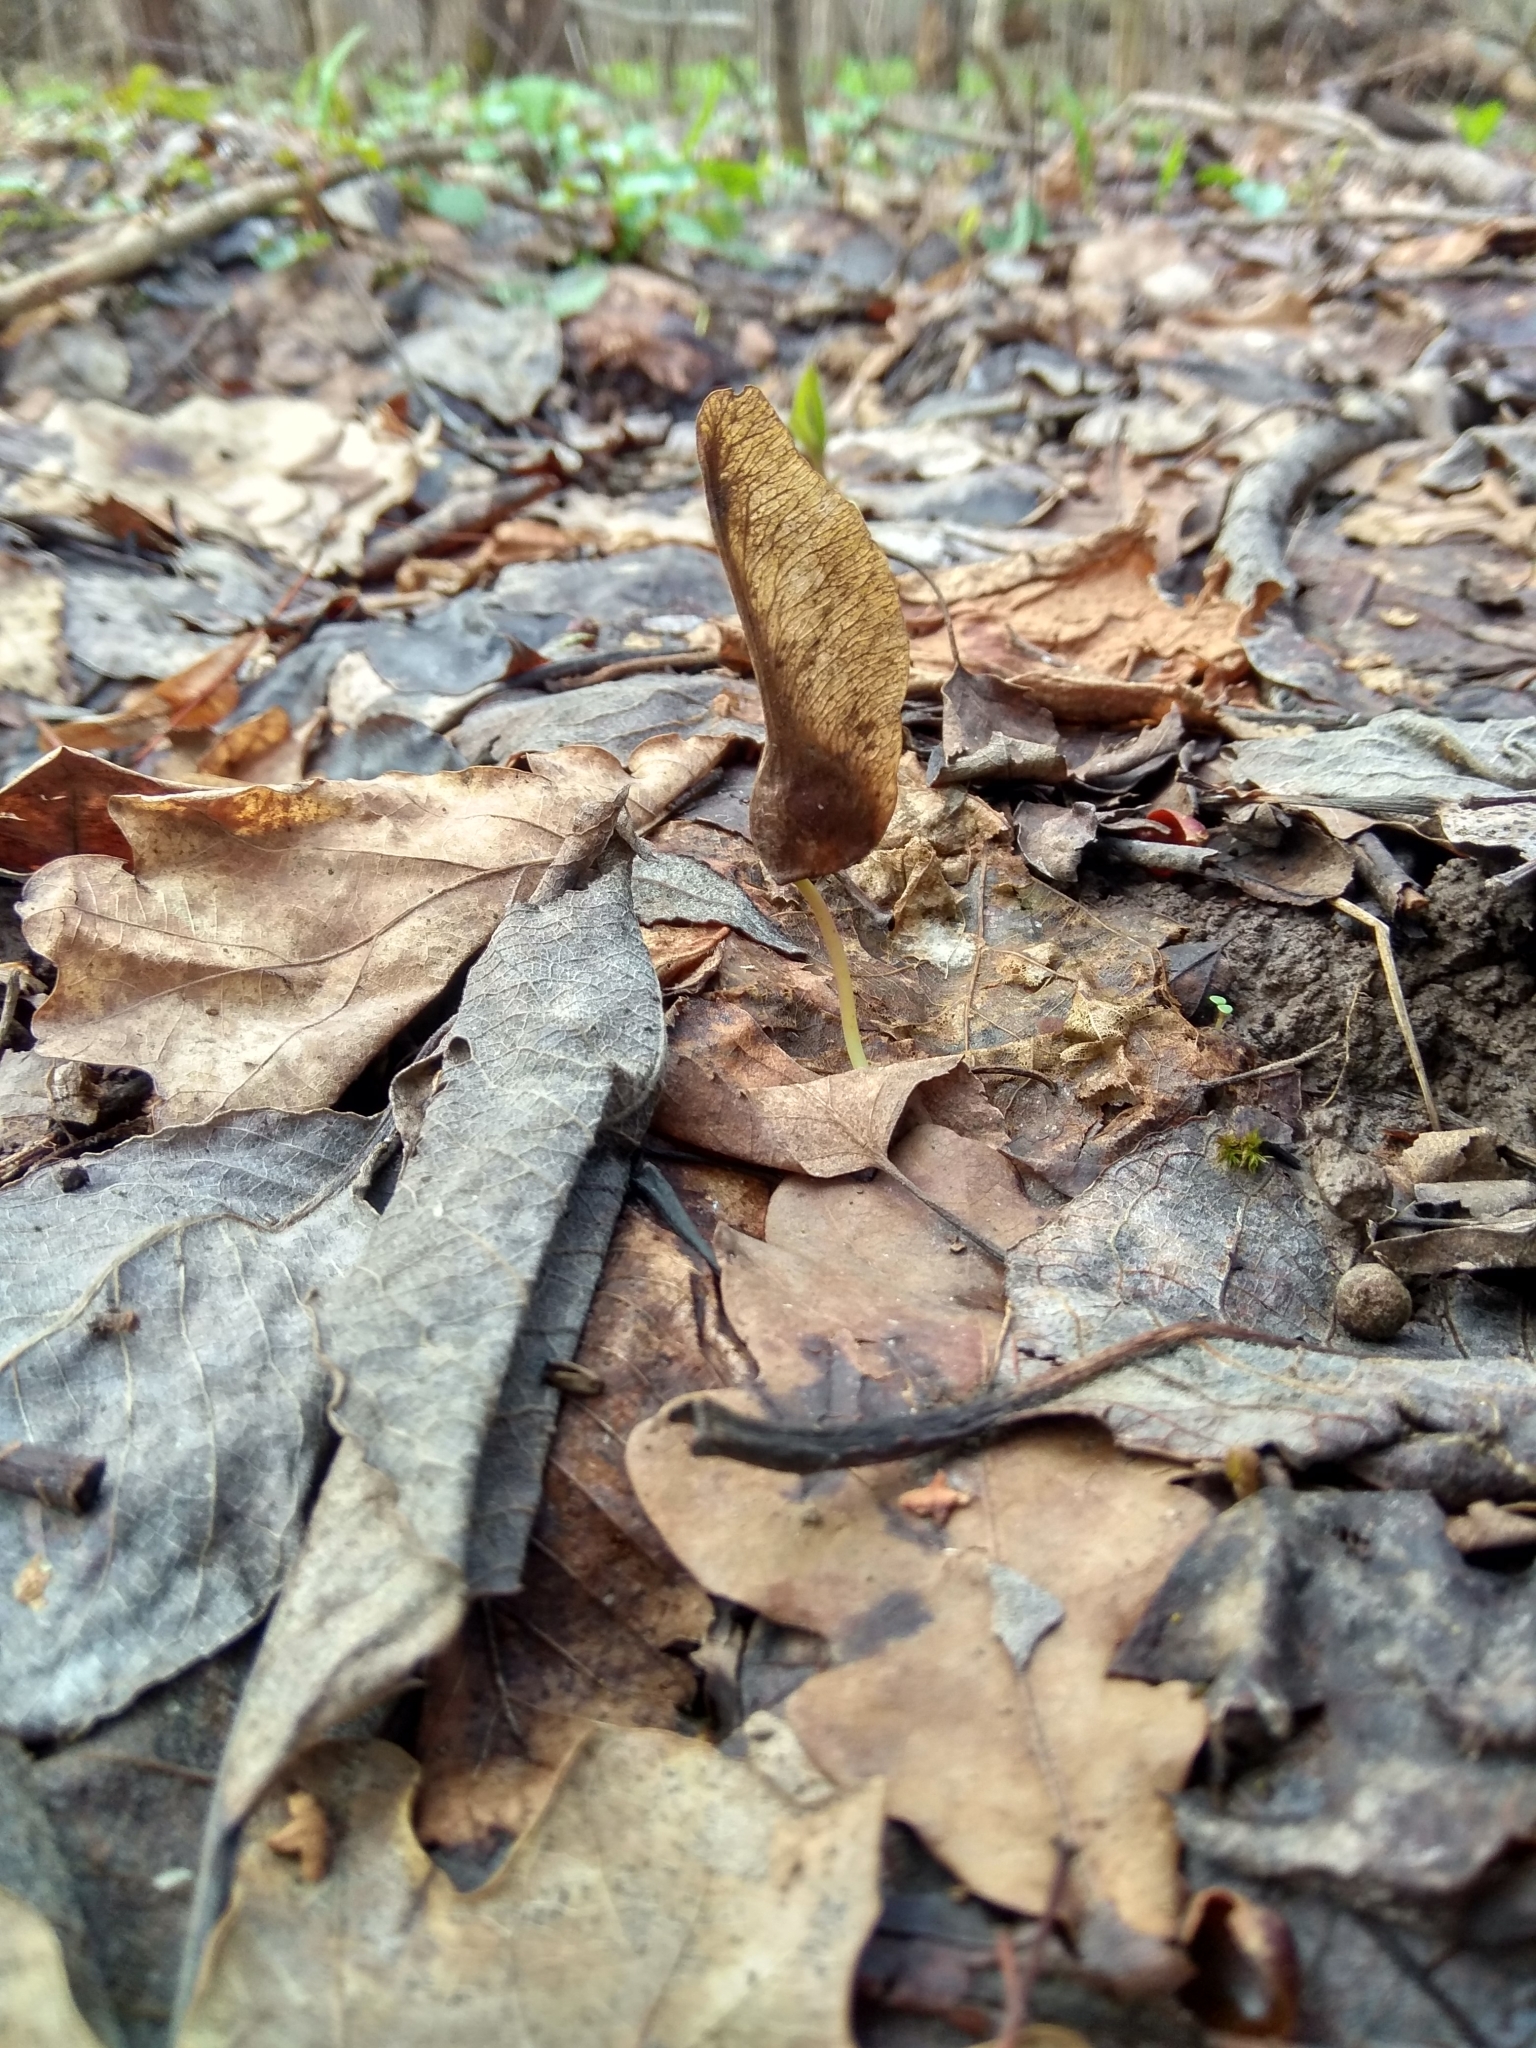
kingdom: Plantae
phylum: Tracheophyta
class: Magnoliopsida
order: Sapindales
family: Sapindaceae
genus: Acer
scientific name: Acer platanoides
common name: Norway maple
